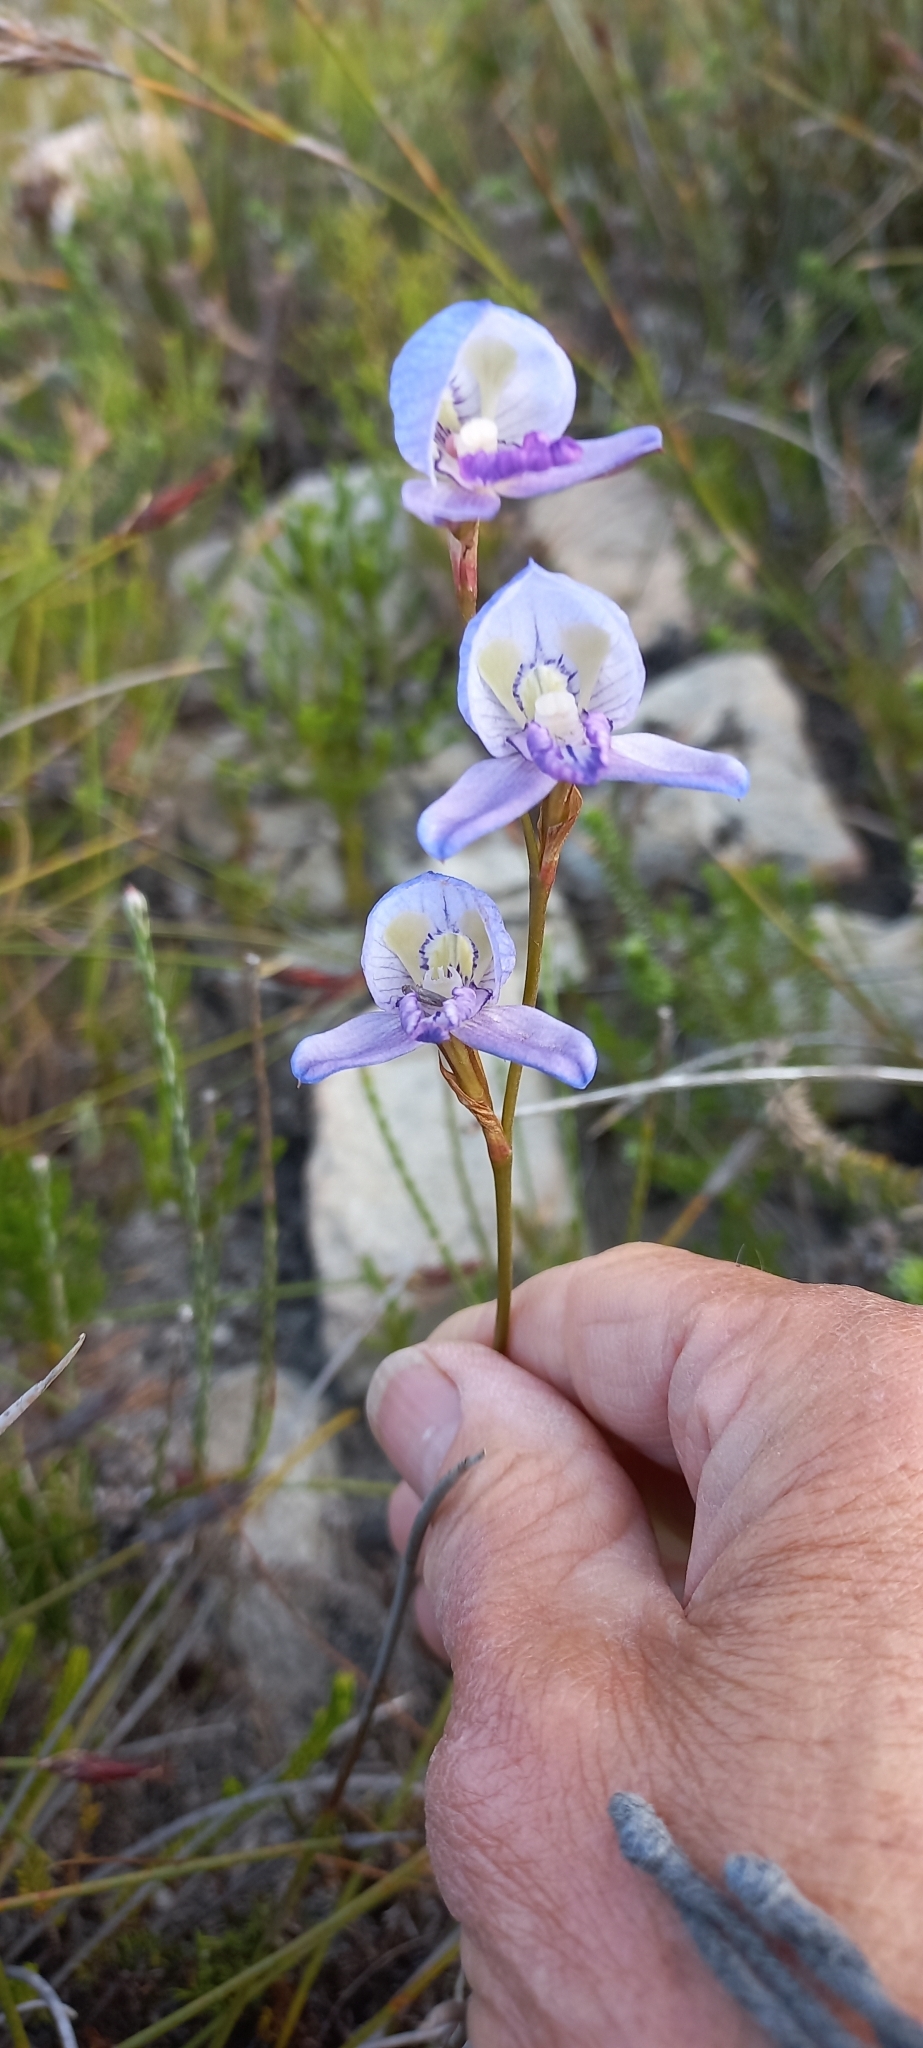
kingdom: Plantae
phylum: Tracheophyta
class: Liliopsida
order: Asparagales
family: Orchidaceae
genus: Disa
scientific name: Disa purpurascens
